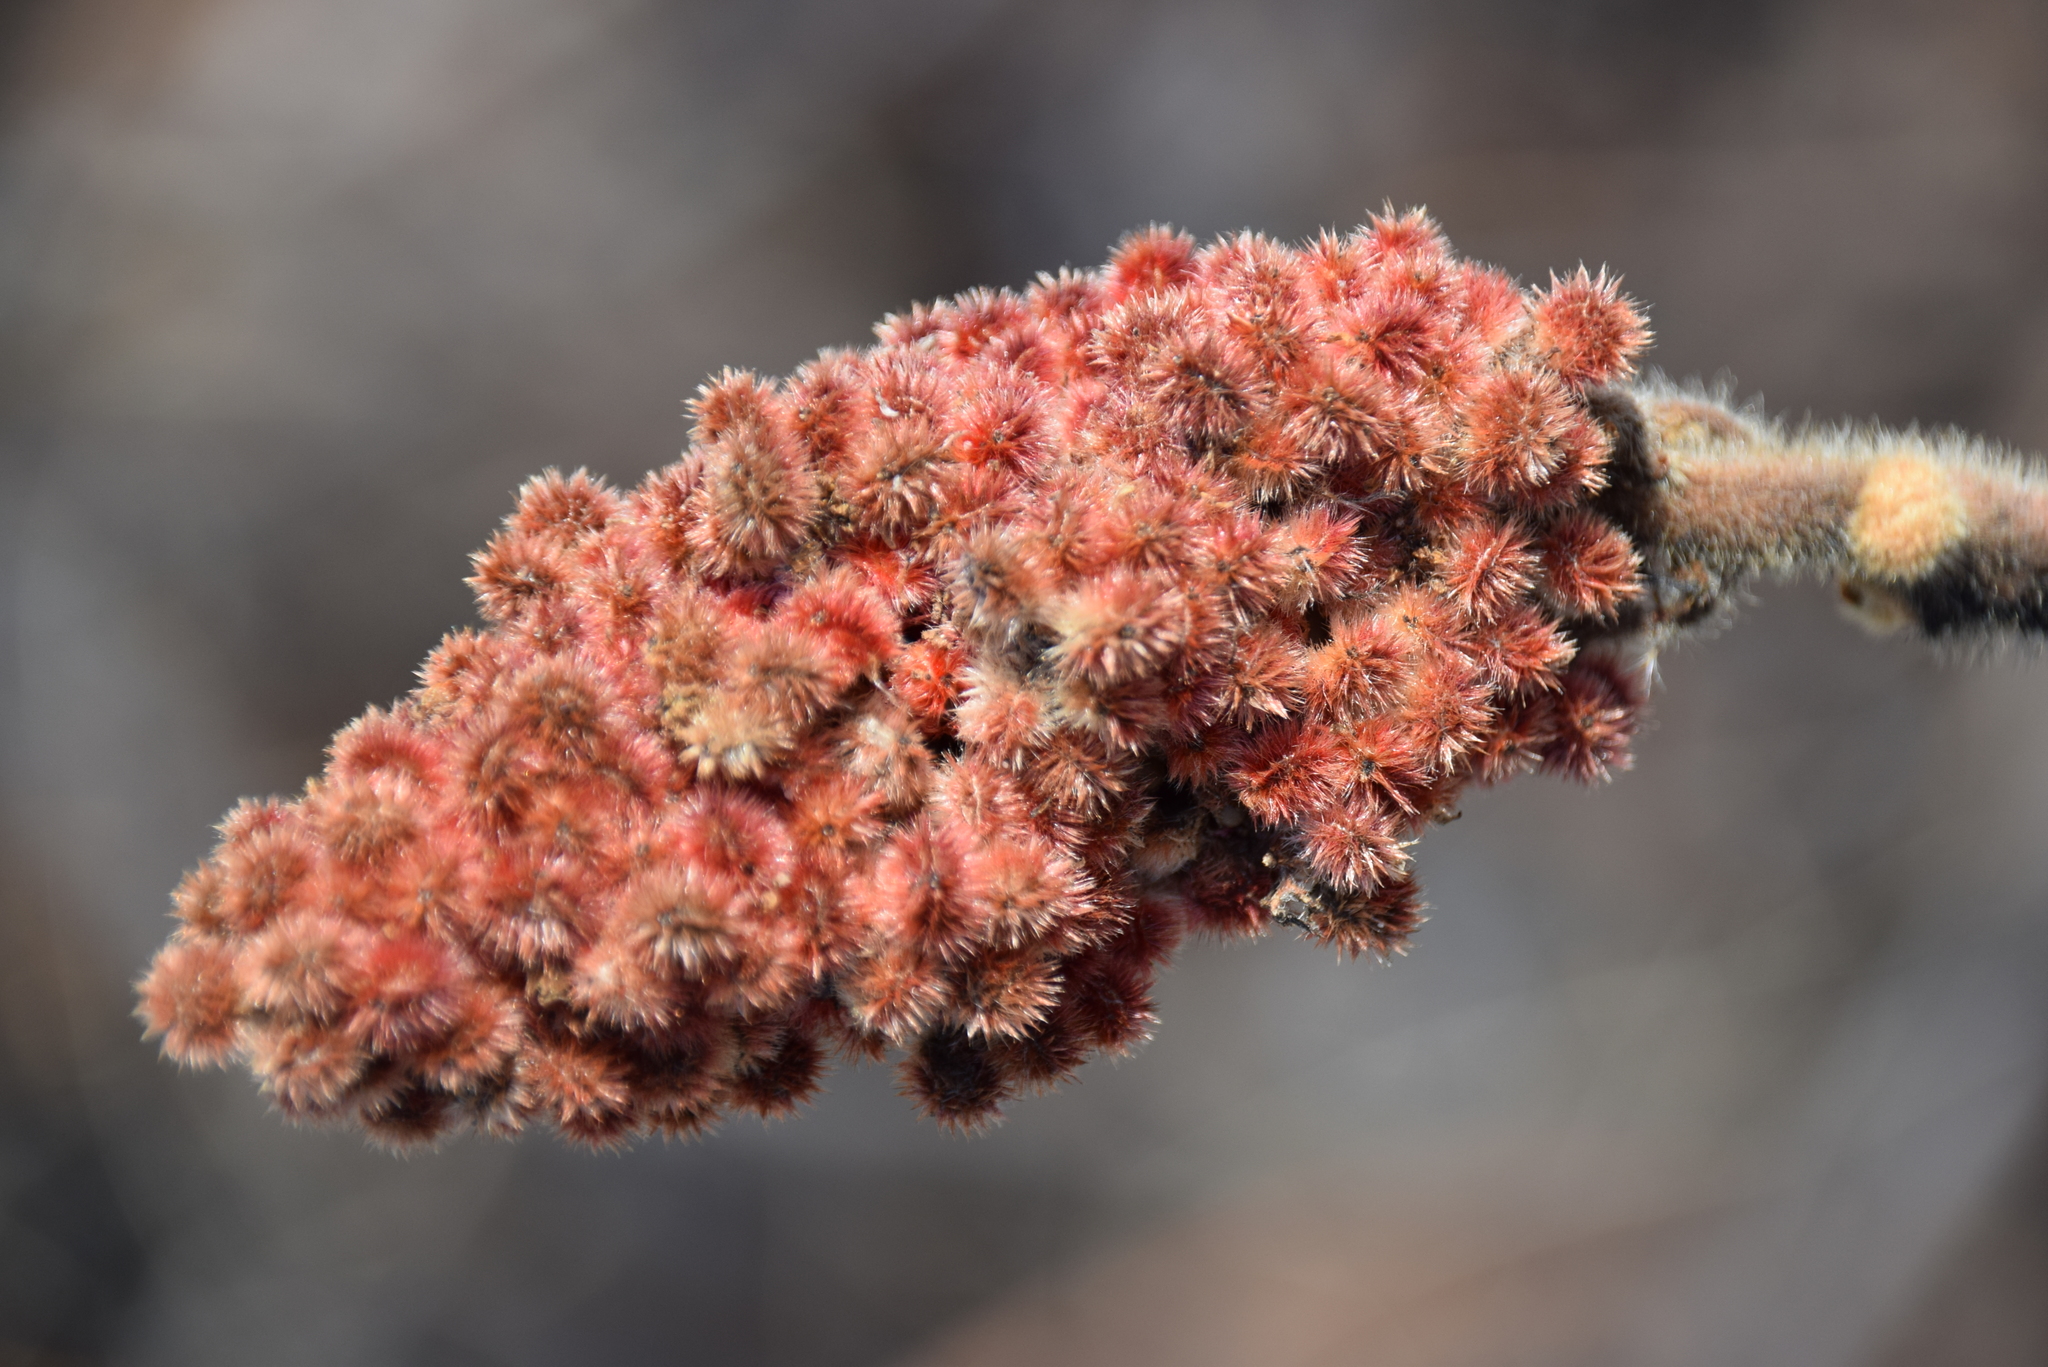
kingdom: Plantae
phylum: Tracheophyta
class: Magnoliopsida
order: Sapindales
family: Anacardiaceae
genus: Rhus
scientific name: Rhus typhina
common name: Staghorn sumac
